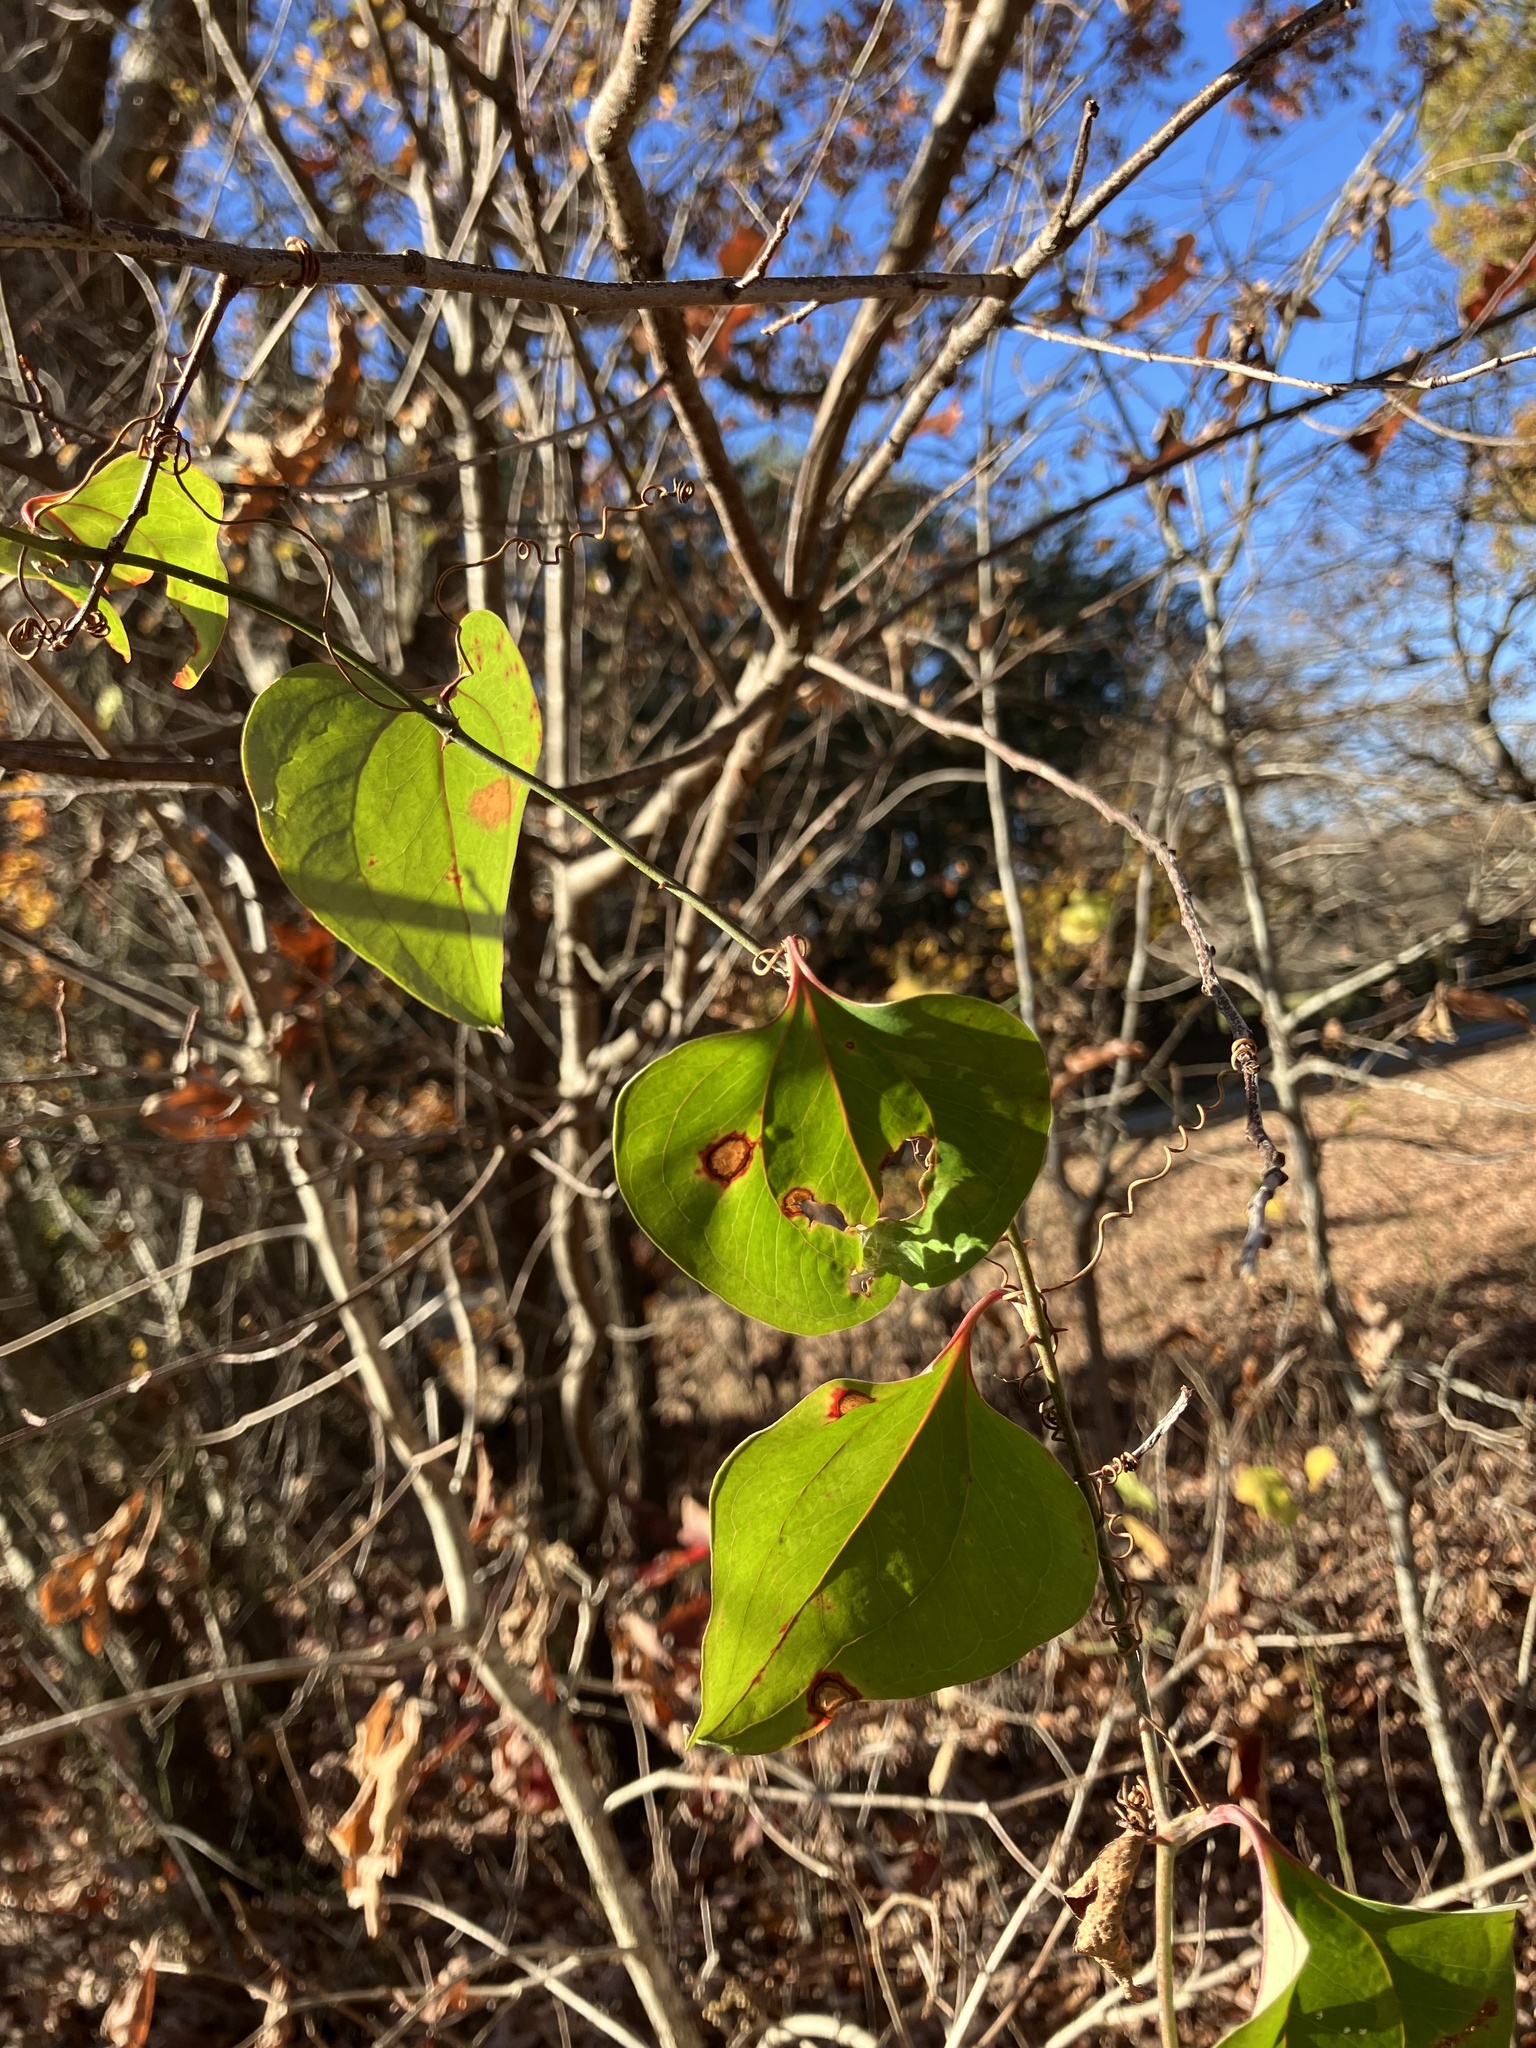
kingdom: Plantae
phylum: Tracheophyta
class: Liliopsida
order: Liliales
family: Smilacaceae
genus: Smilax
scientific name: Smilax rotundifolia
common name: Bullbriar
